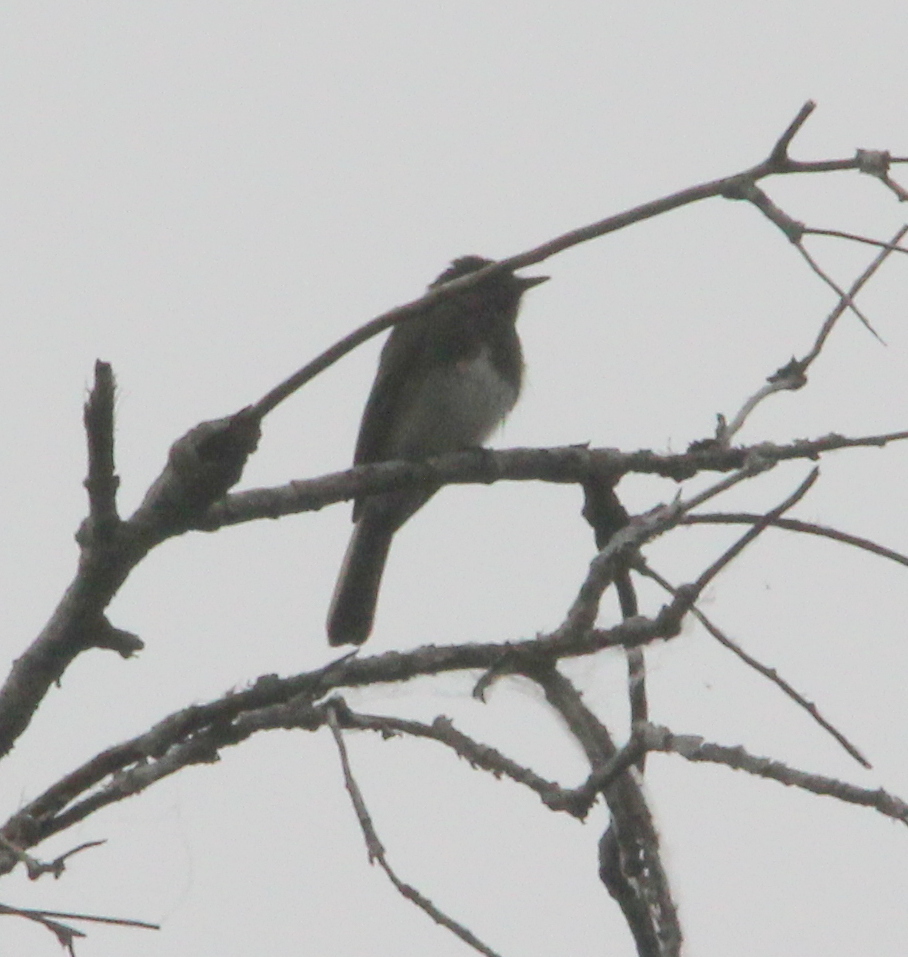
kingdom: Animalia
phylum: Chordata
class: Aves
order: Passeriformes
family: Tyrannidae
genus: Sayornis
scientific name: Sayornis nigricans
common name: Black phoebe
